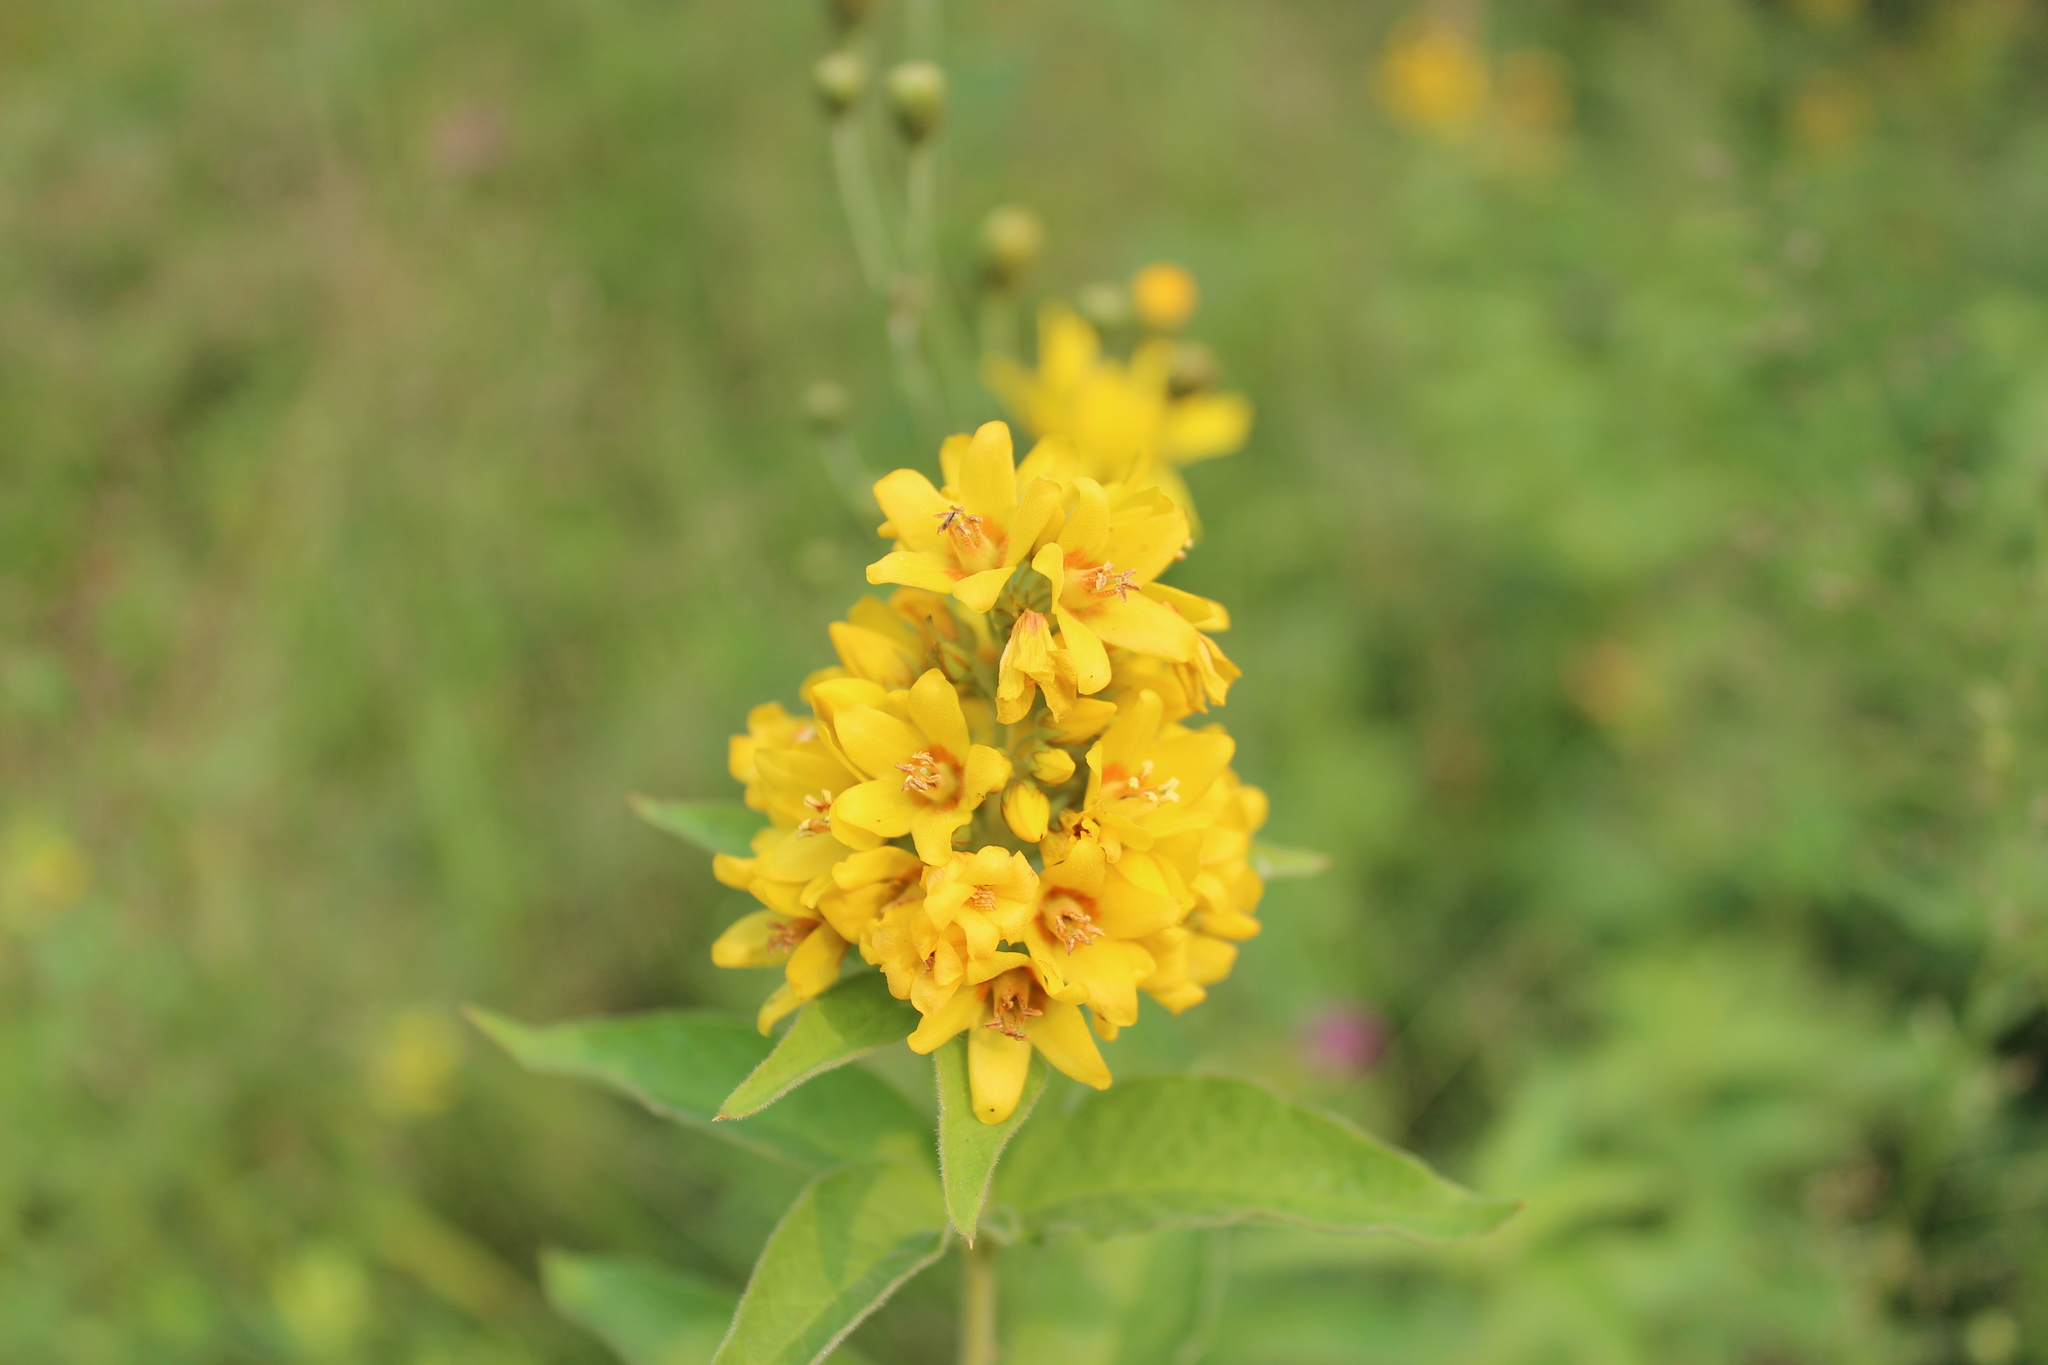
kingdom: Plantae
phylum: Tracheophyta
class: Magnoliopsida
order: Ericales
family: Primulaceae
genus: Lysimachia
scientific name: Lysimachia vulgaris
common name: Yellow loosestrife
